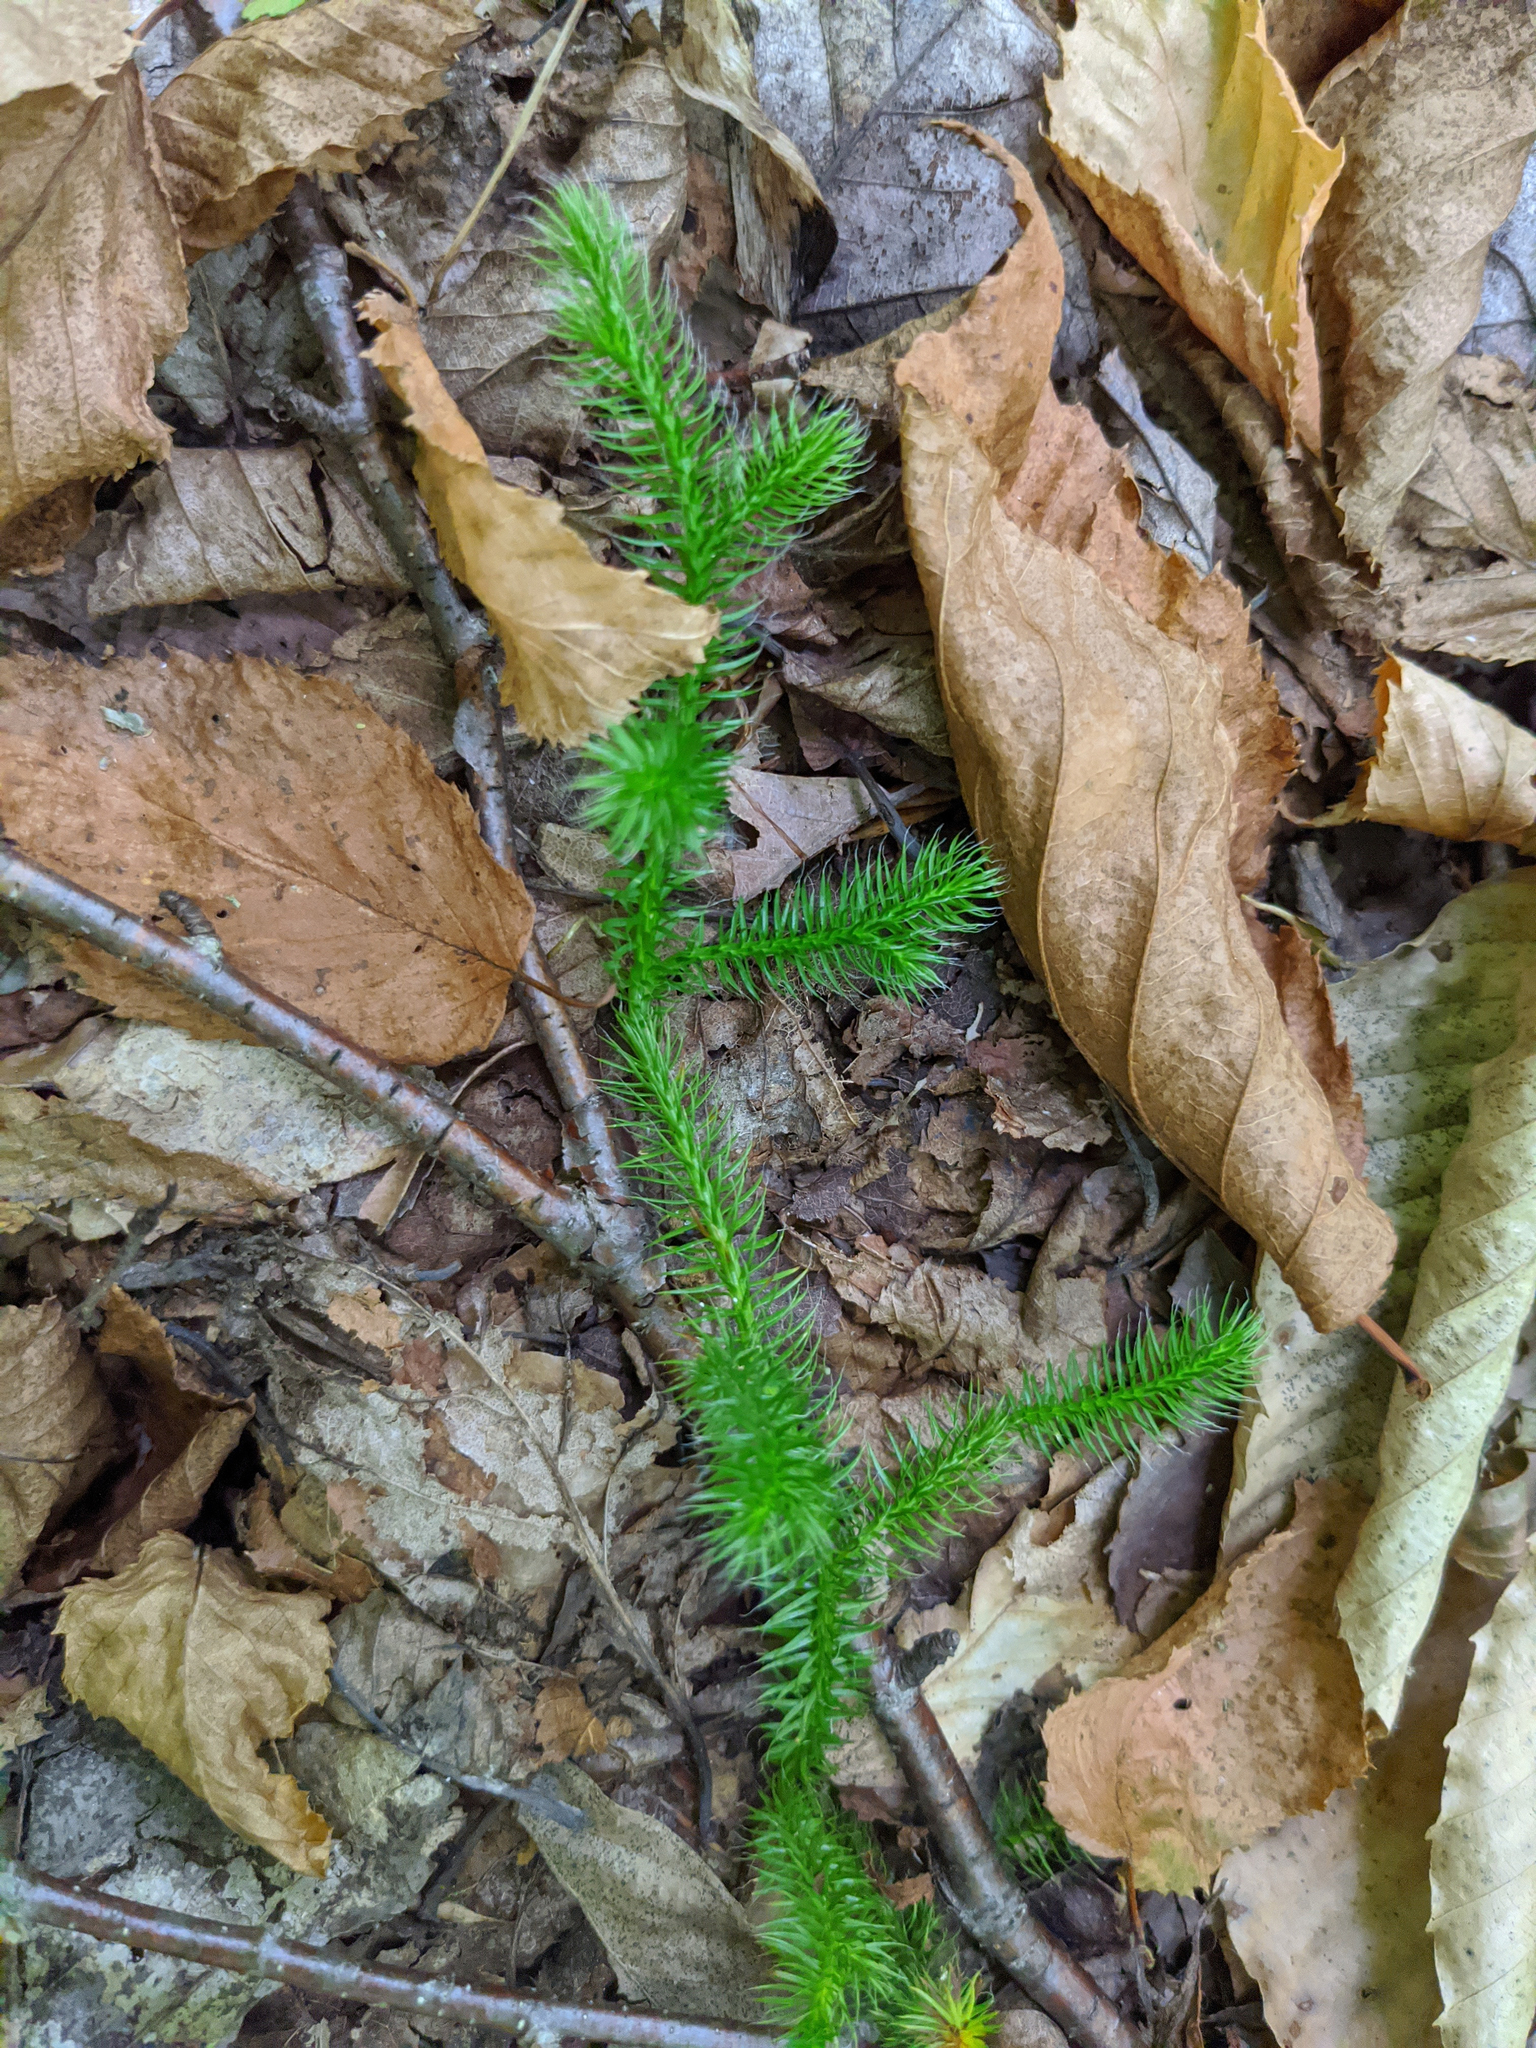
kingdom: Plantae
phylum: Tracheophyta
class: Lycopodiopsida
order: Lycopodiales
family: Lycopodiaceae
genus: Lycopodium
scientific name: Lycopodium clavatum
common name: Stag's-horn clubmoss
